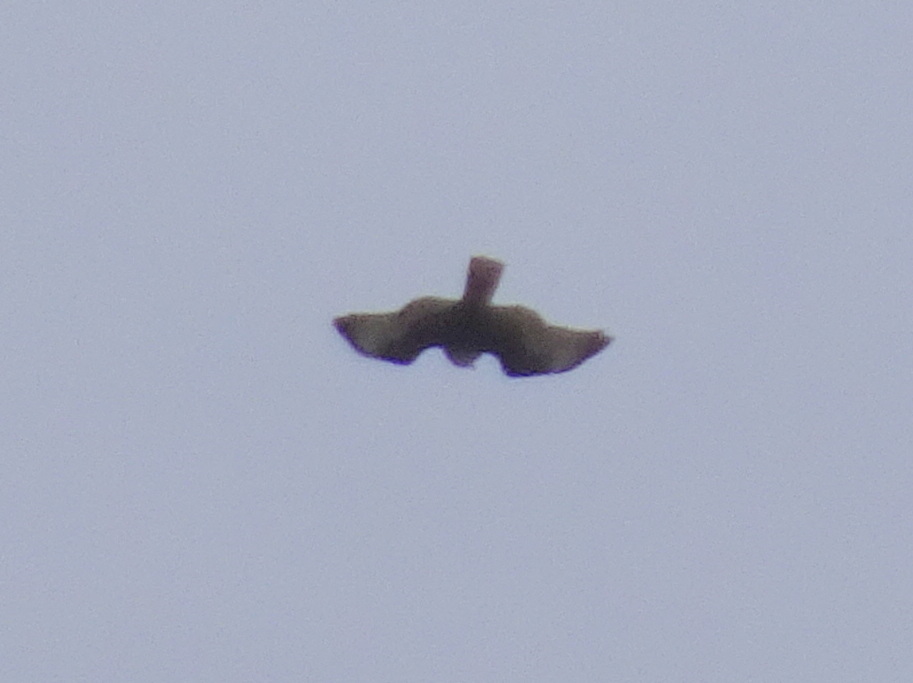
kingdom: Animalia
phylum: Chordata
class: Aves
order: Accipitriformes
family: Accipitridae
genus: Buteo
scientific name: Buteo jamaicensis
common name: Red-tailed hawk
